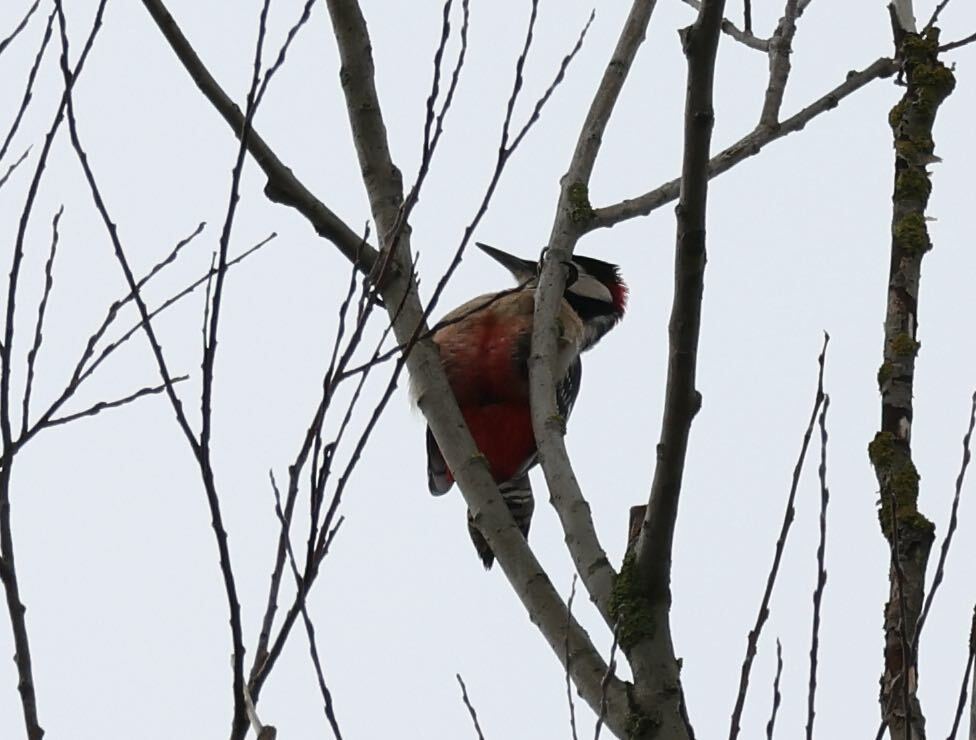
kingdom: Animalia
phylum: Chordata
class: Aves
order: Piciformes
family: Picidae
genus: Dendrocopos
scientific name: Dendrocopos major
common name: Great spotted woodpecker
